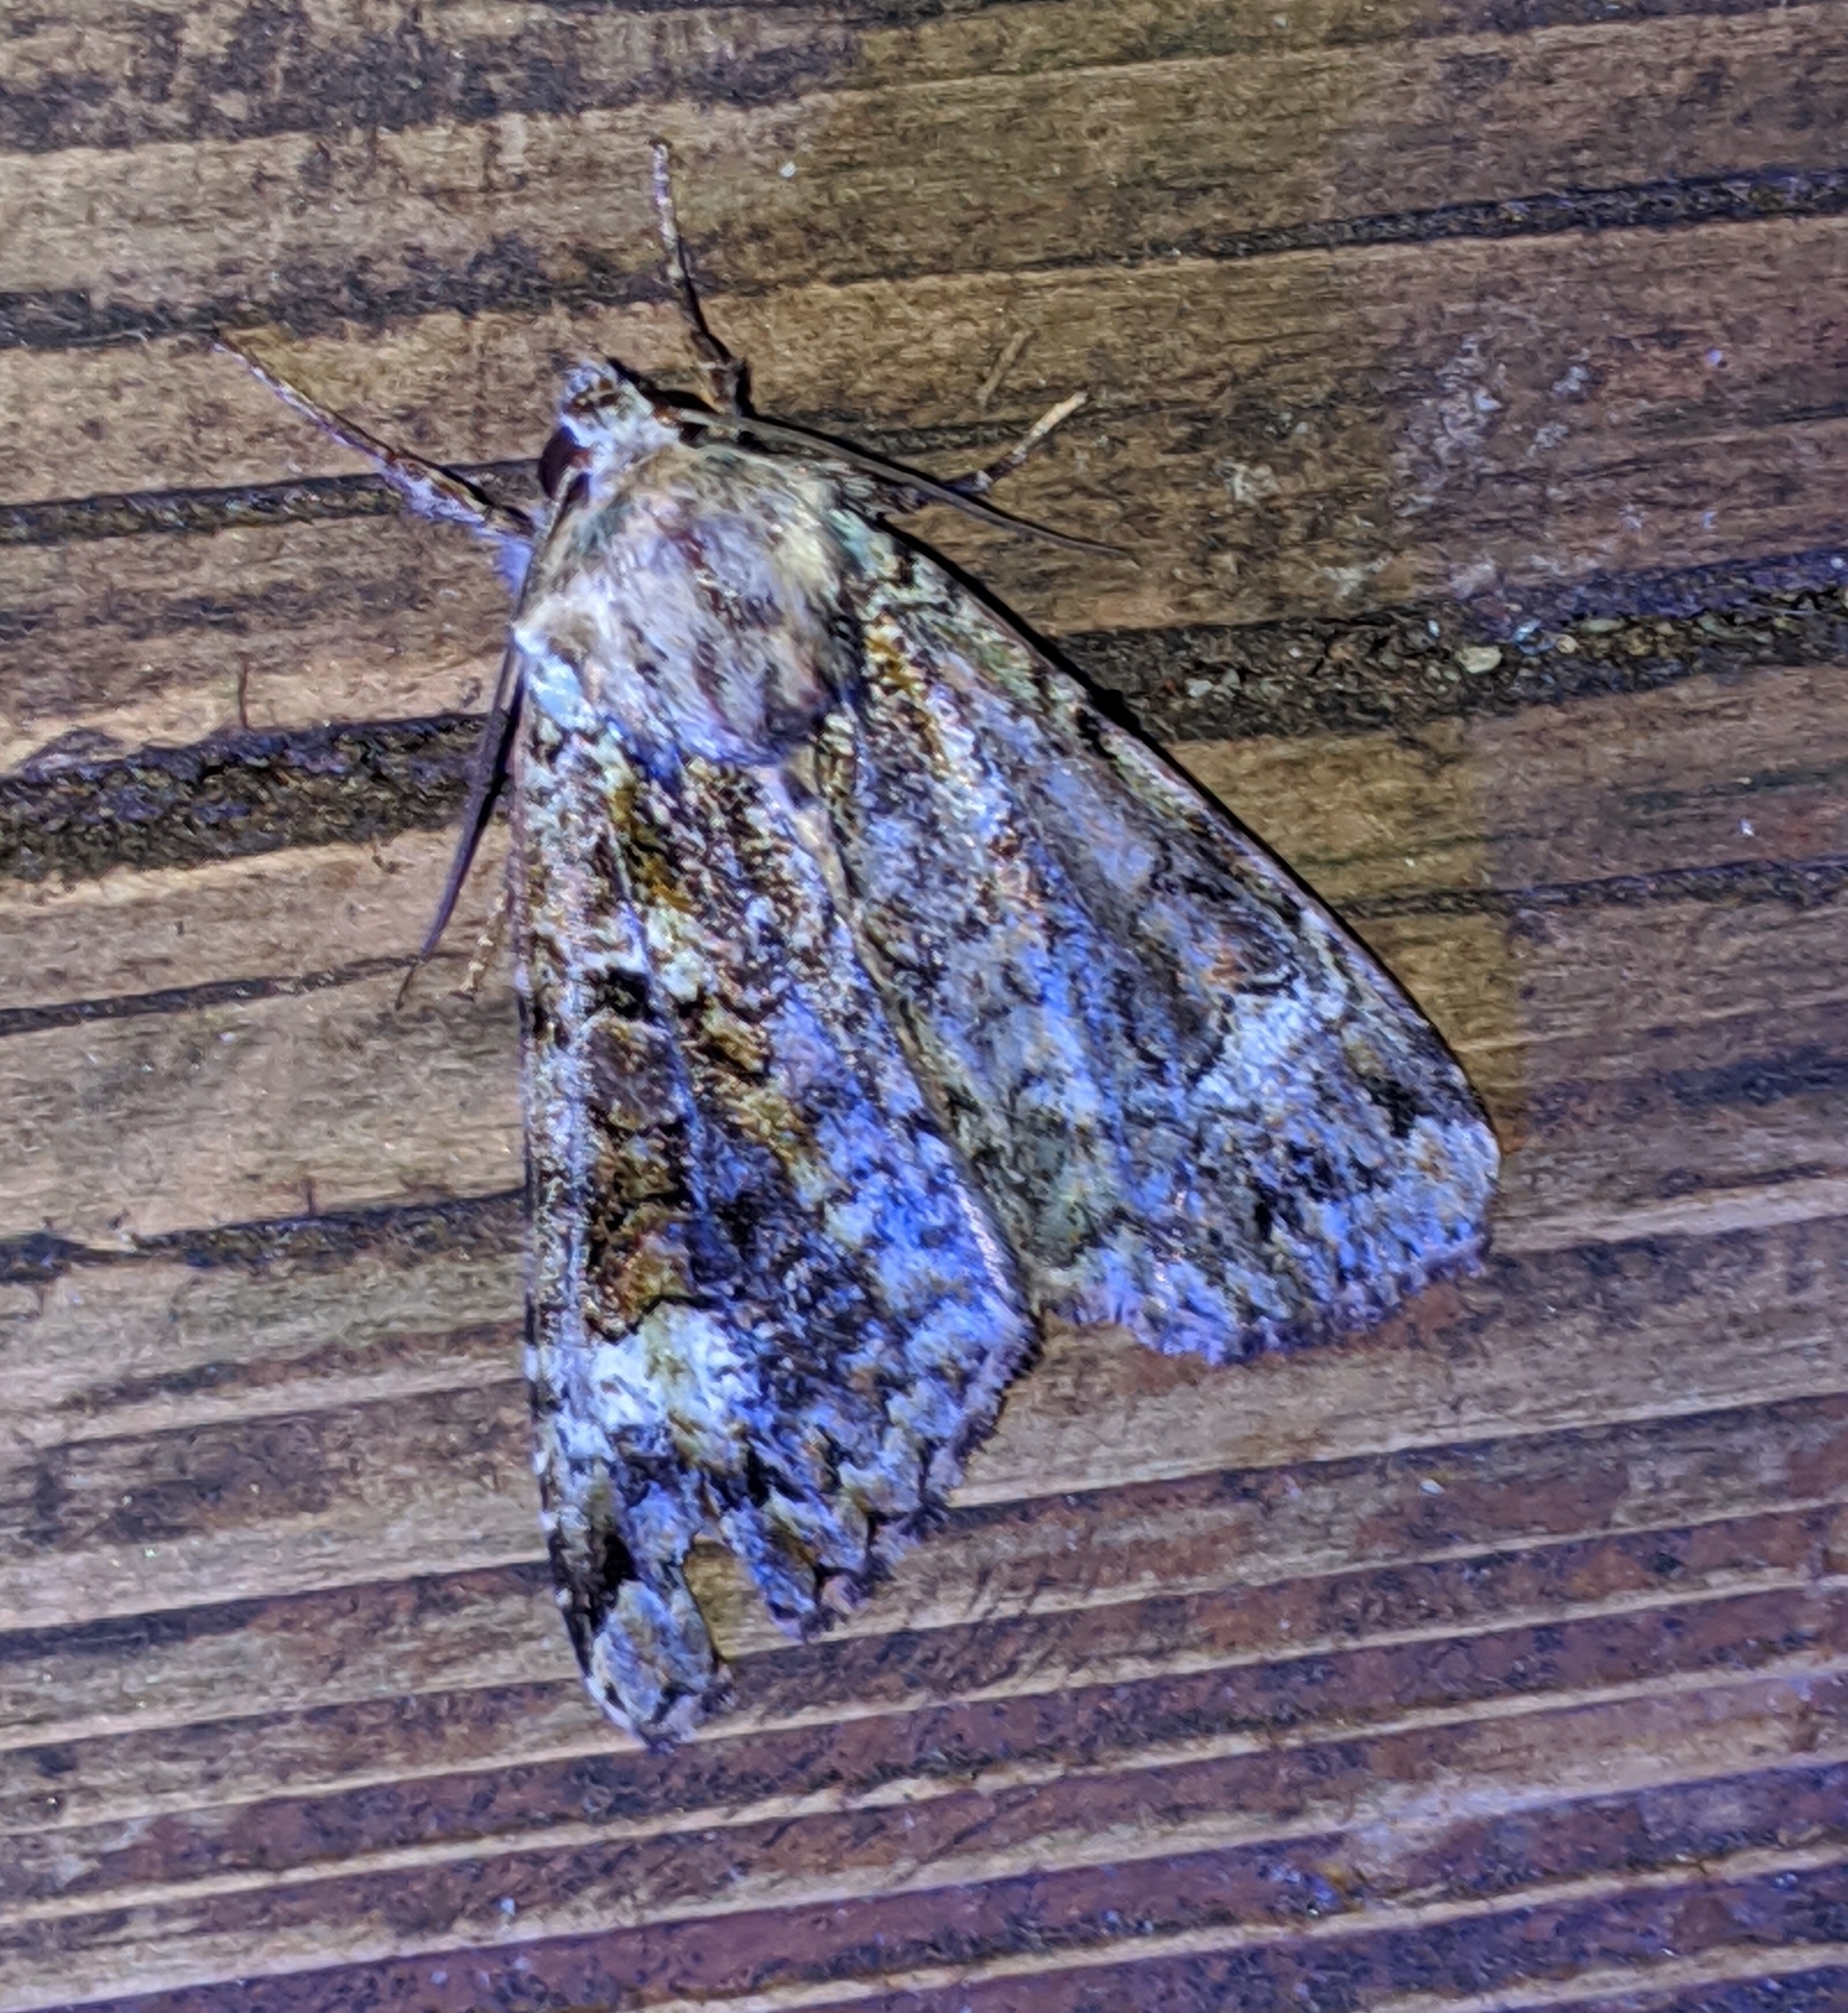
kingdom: Animalia
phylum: Arthropoda
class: Insecta
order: Lepidoptera
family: Noctuidae
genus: Anaplectoides
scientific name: Anaplectoides prasina
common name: Green arches
